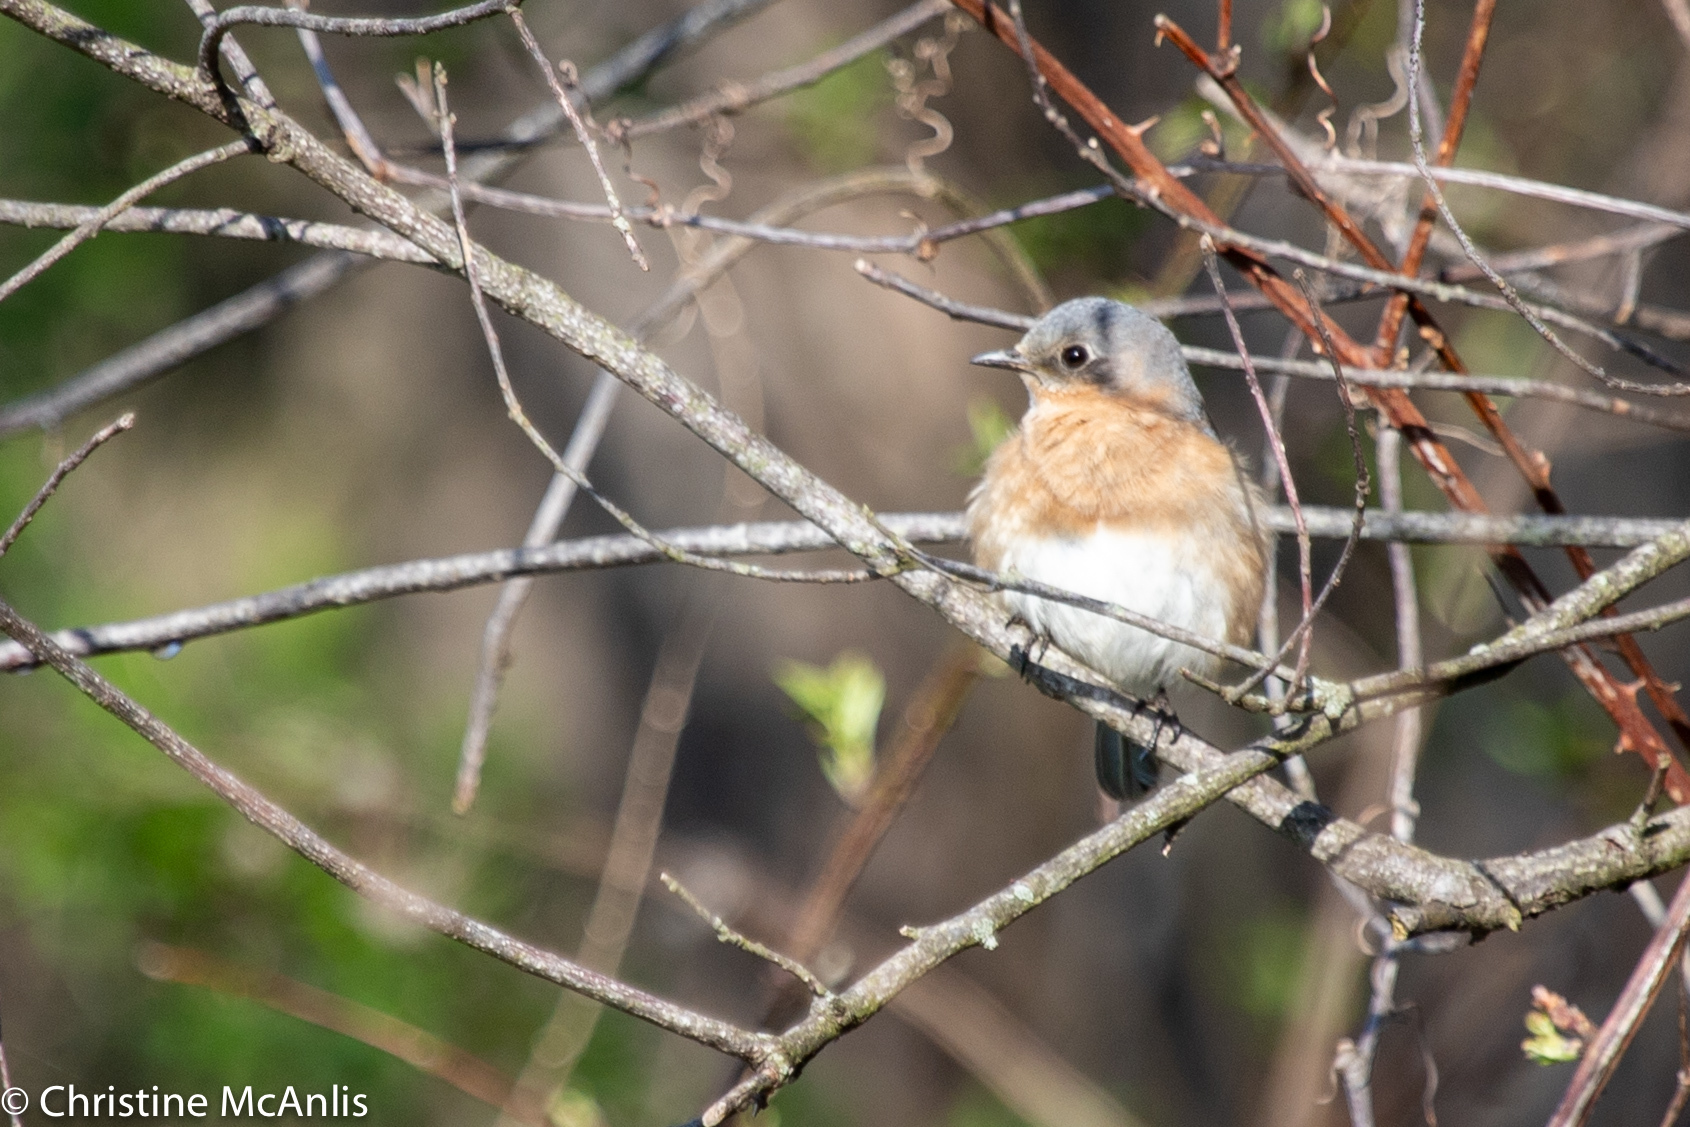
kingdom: Animalia
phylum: Chordata
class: Aves
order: Passeriformes
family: Turdidae
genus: Sialia
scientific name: Sialia sialis
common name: Eastern bluebird
